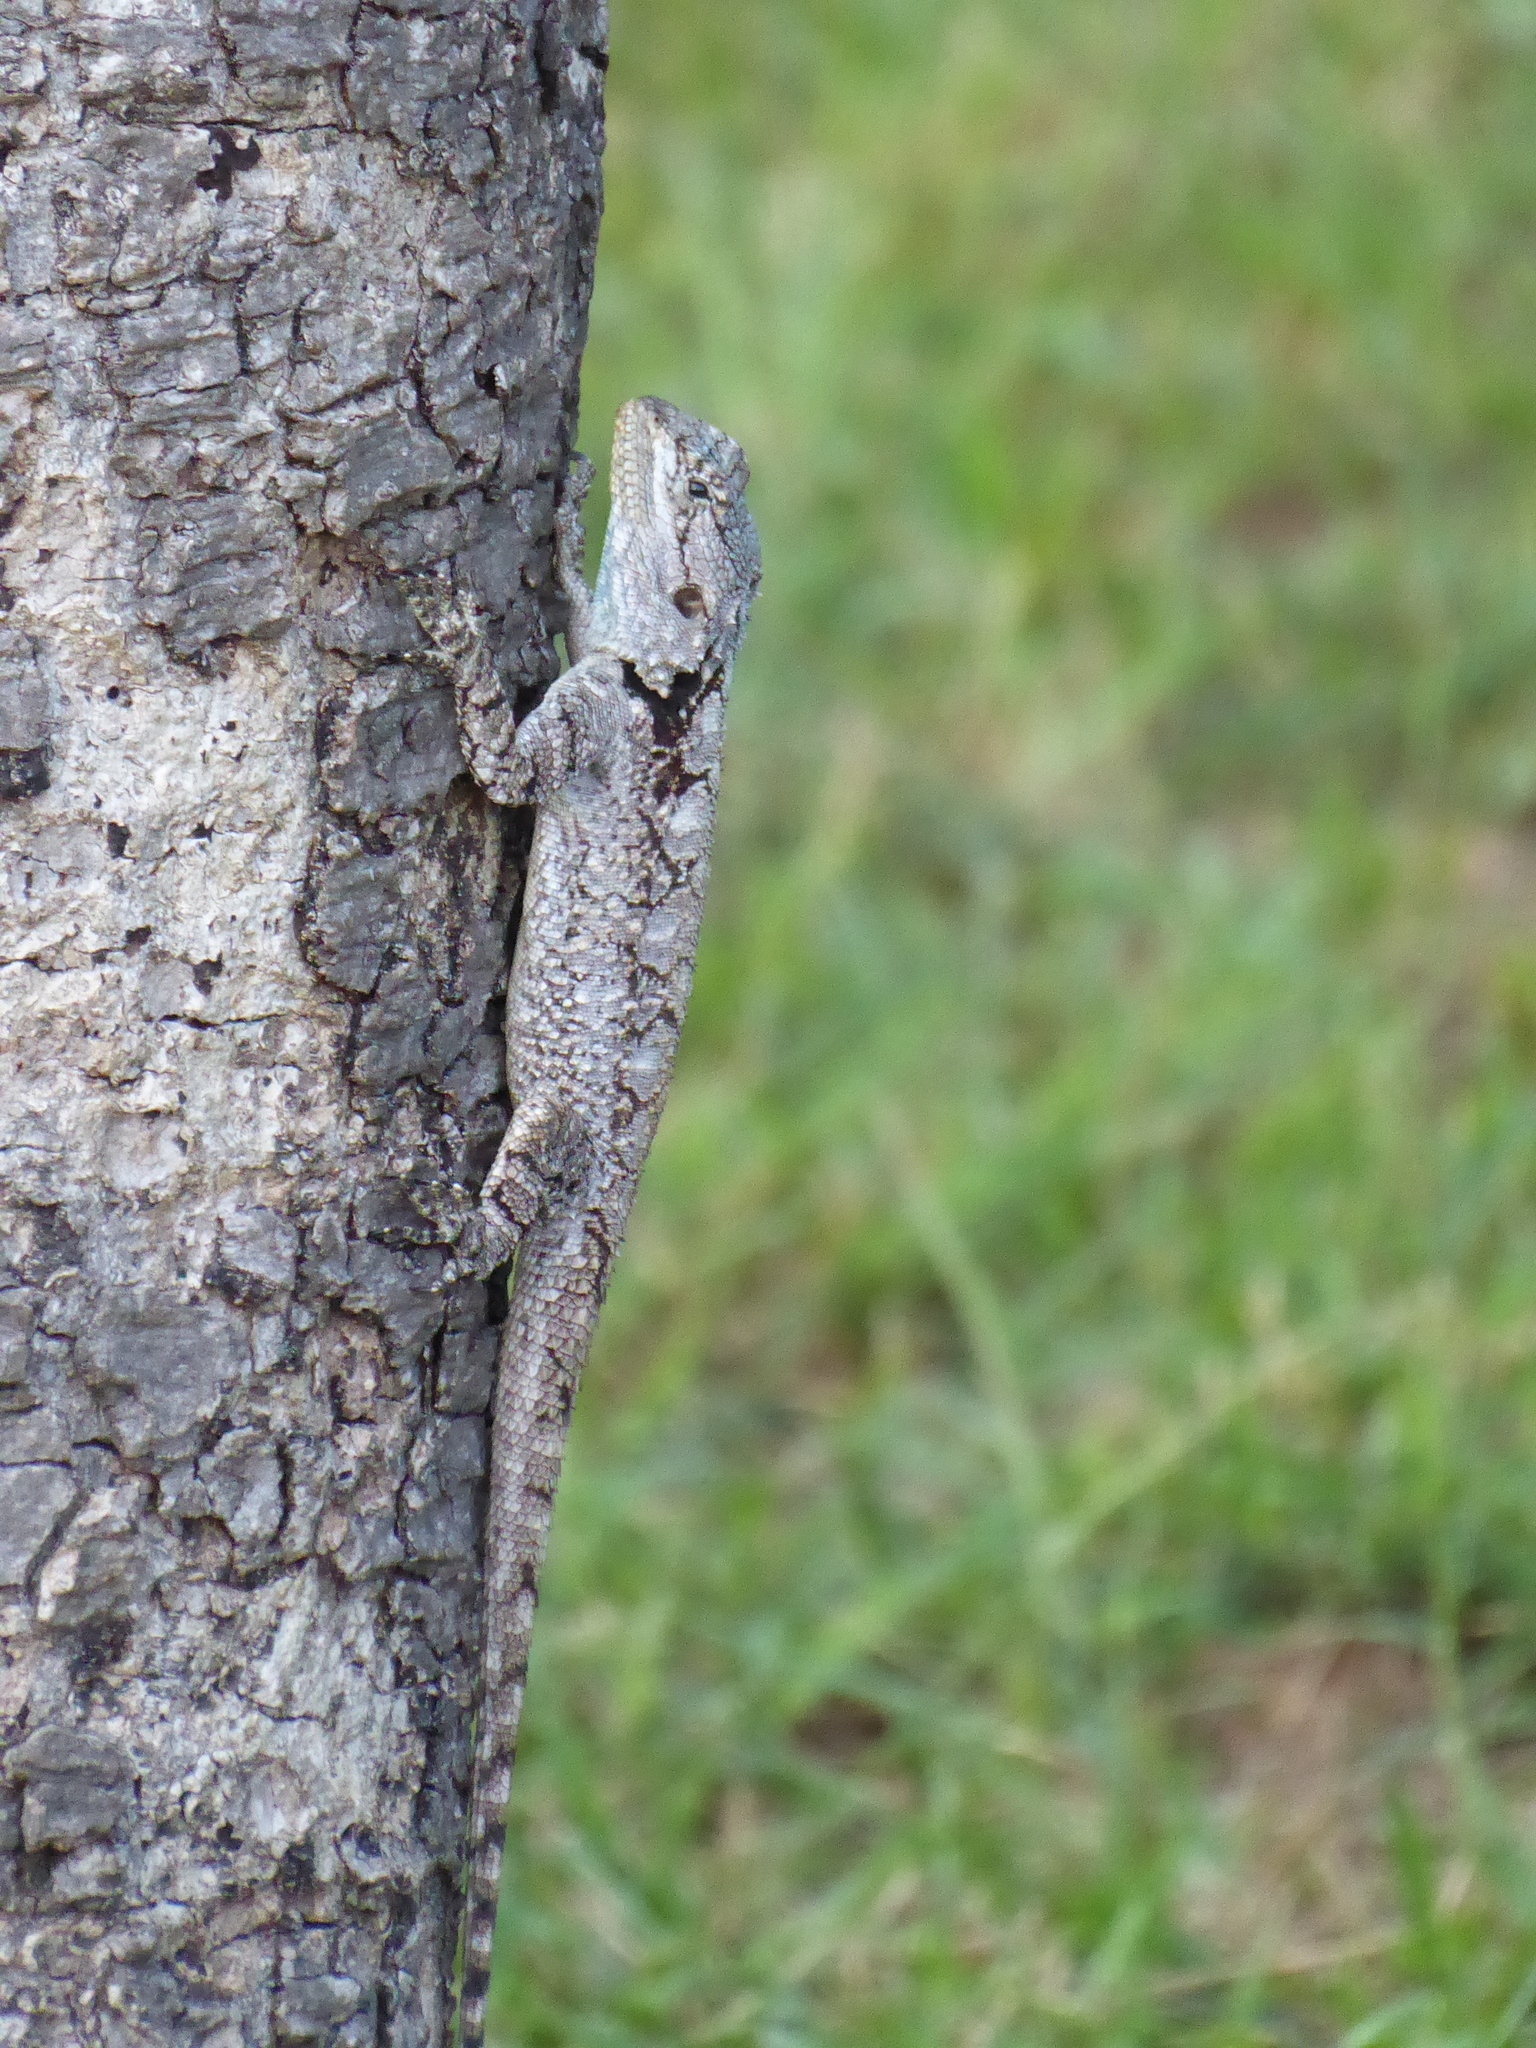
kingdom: Animalia
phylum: Chordata
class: Squamata
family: Agamidae
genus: Acanthocercus
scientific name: Acanthocercus atricollis
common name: Southern tree agama
